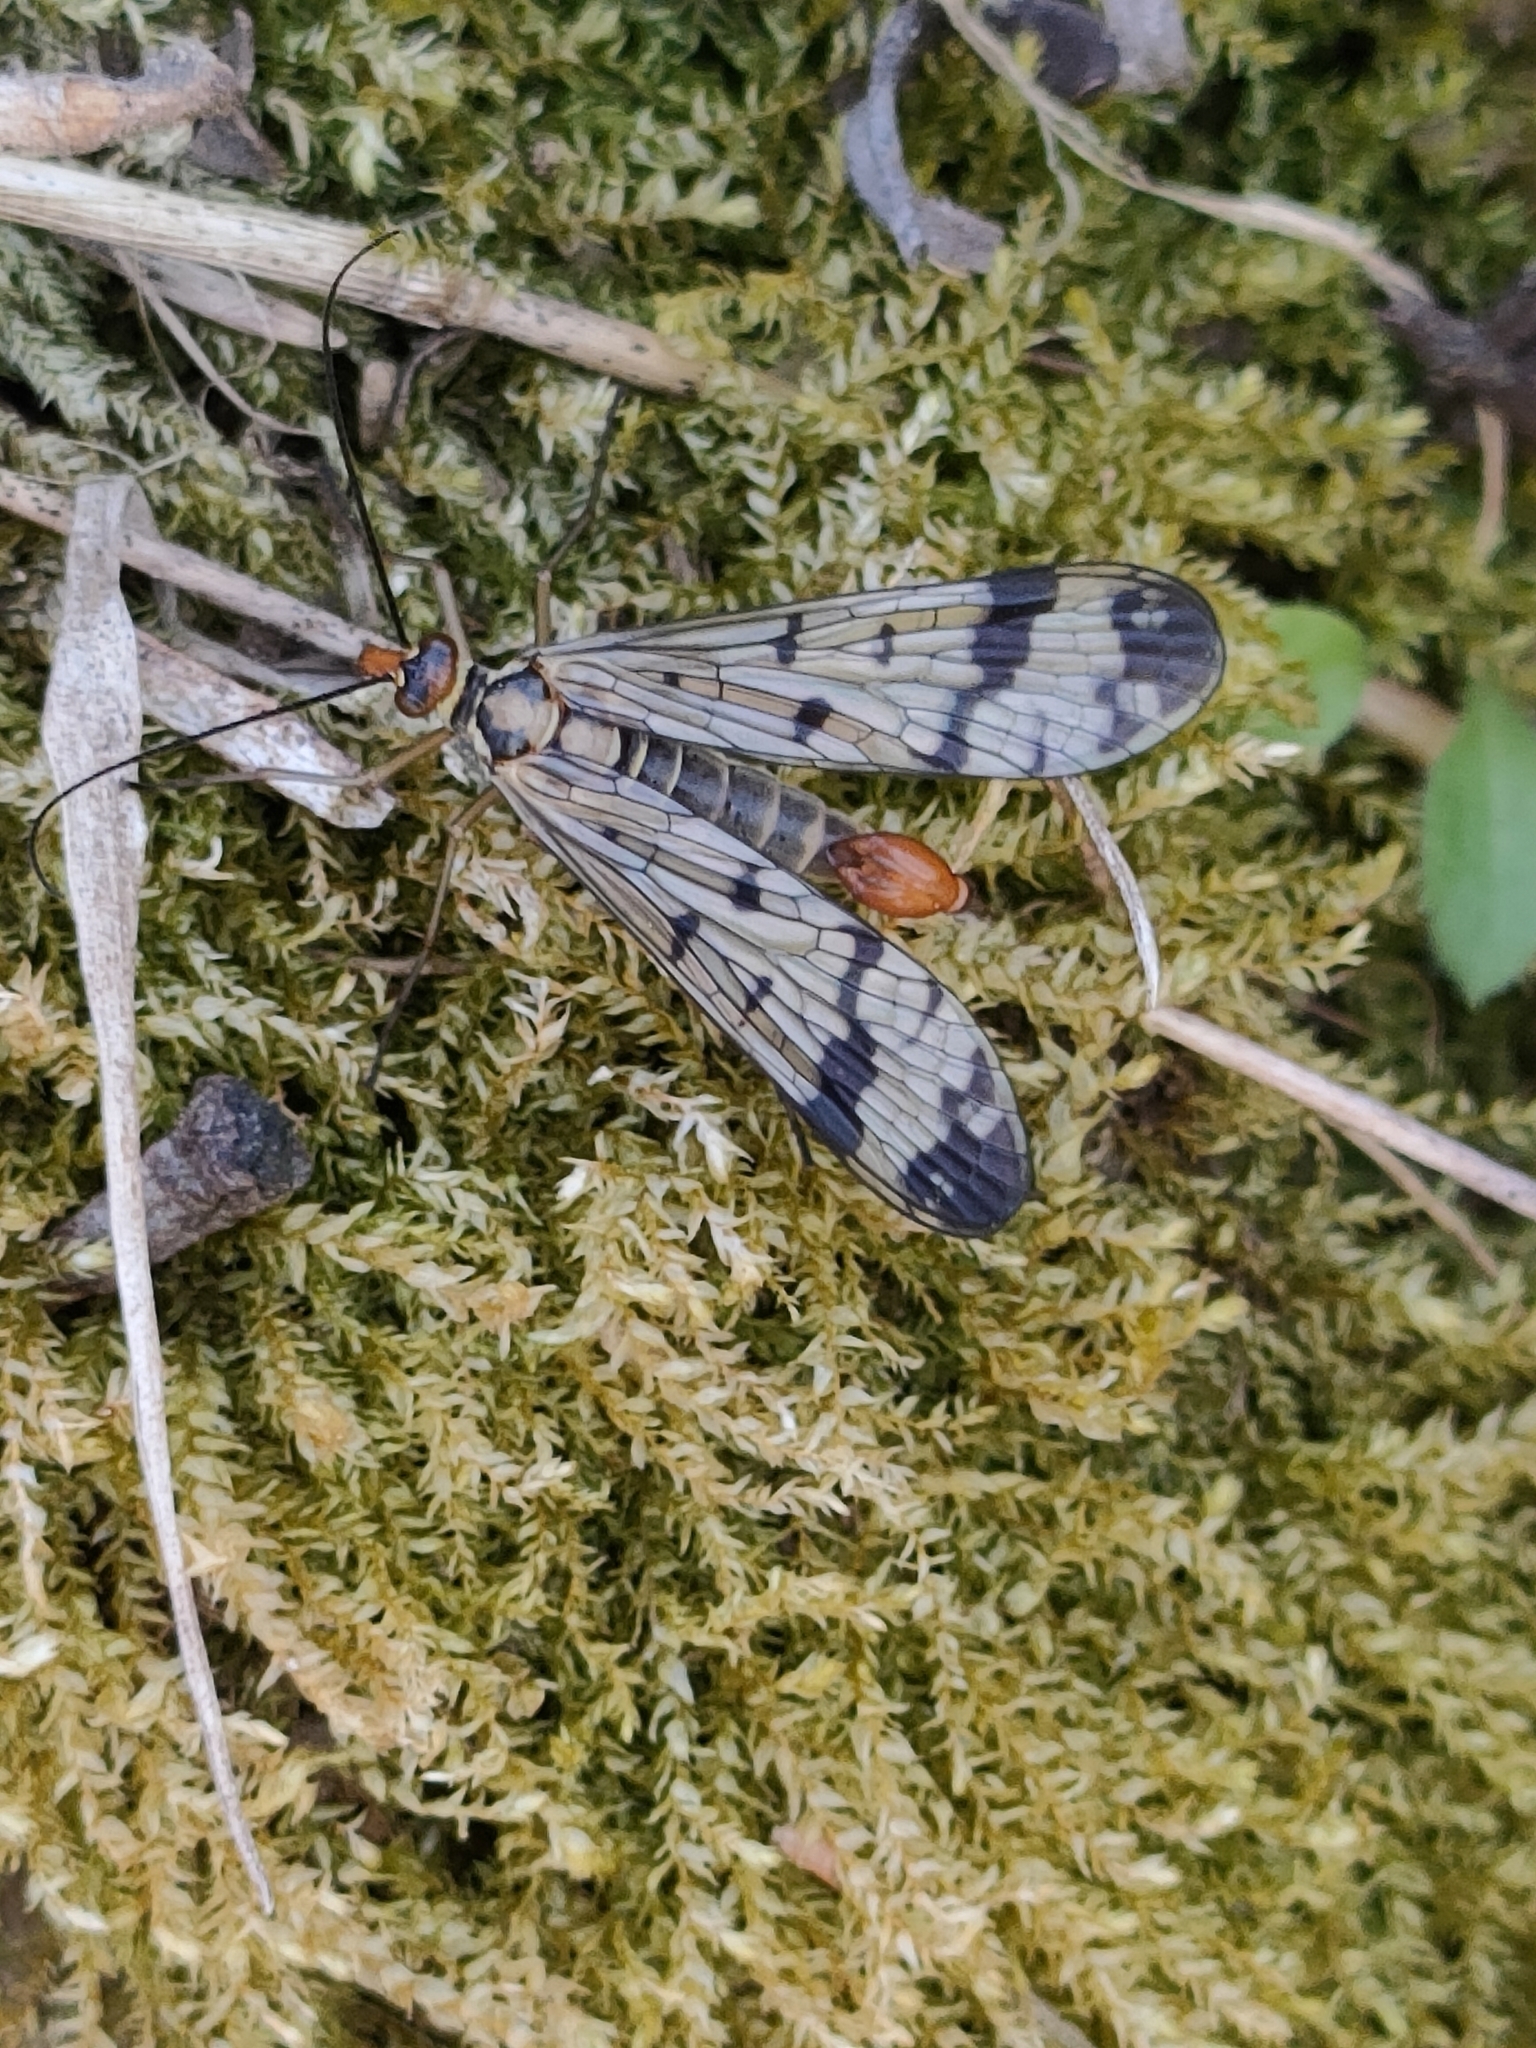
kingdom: Animalia
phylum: Arthropoda
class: Insecta
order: Mecoptera
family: Panorpidae
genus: Panorpa
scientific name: Panorpa communis
